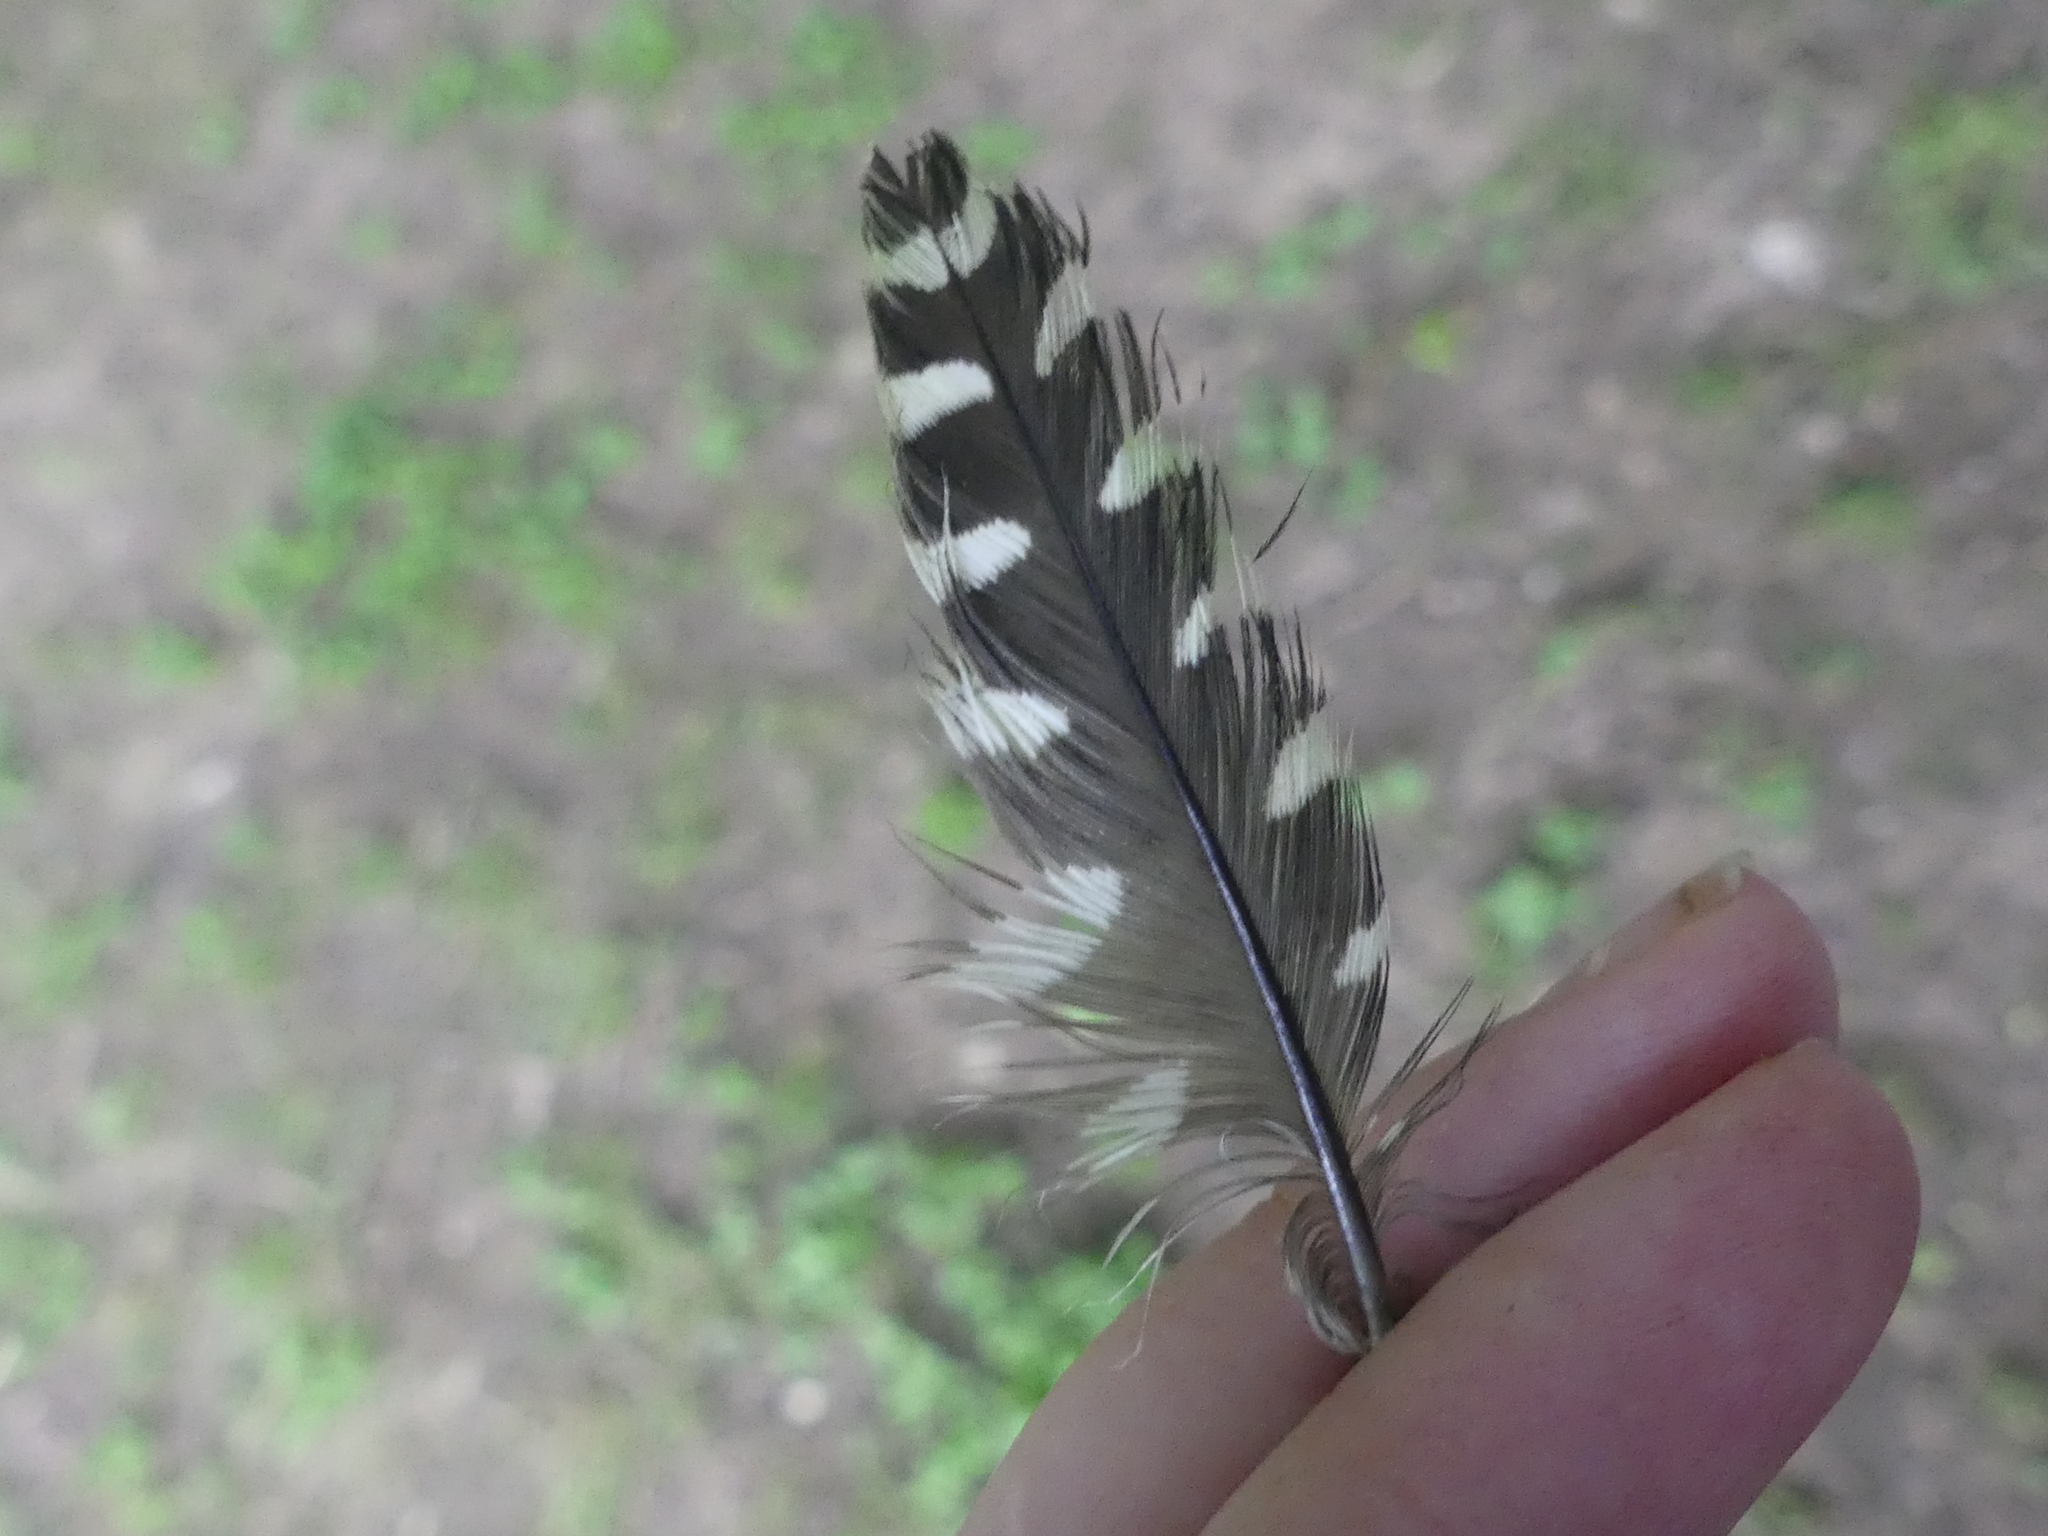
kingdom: Animalia
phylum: Chordata
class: Aves
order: Piciformes
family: Picidae
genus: Melanerpes
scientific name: Melanerpes carolinus
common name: Red-bellied woodpecker
